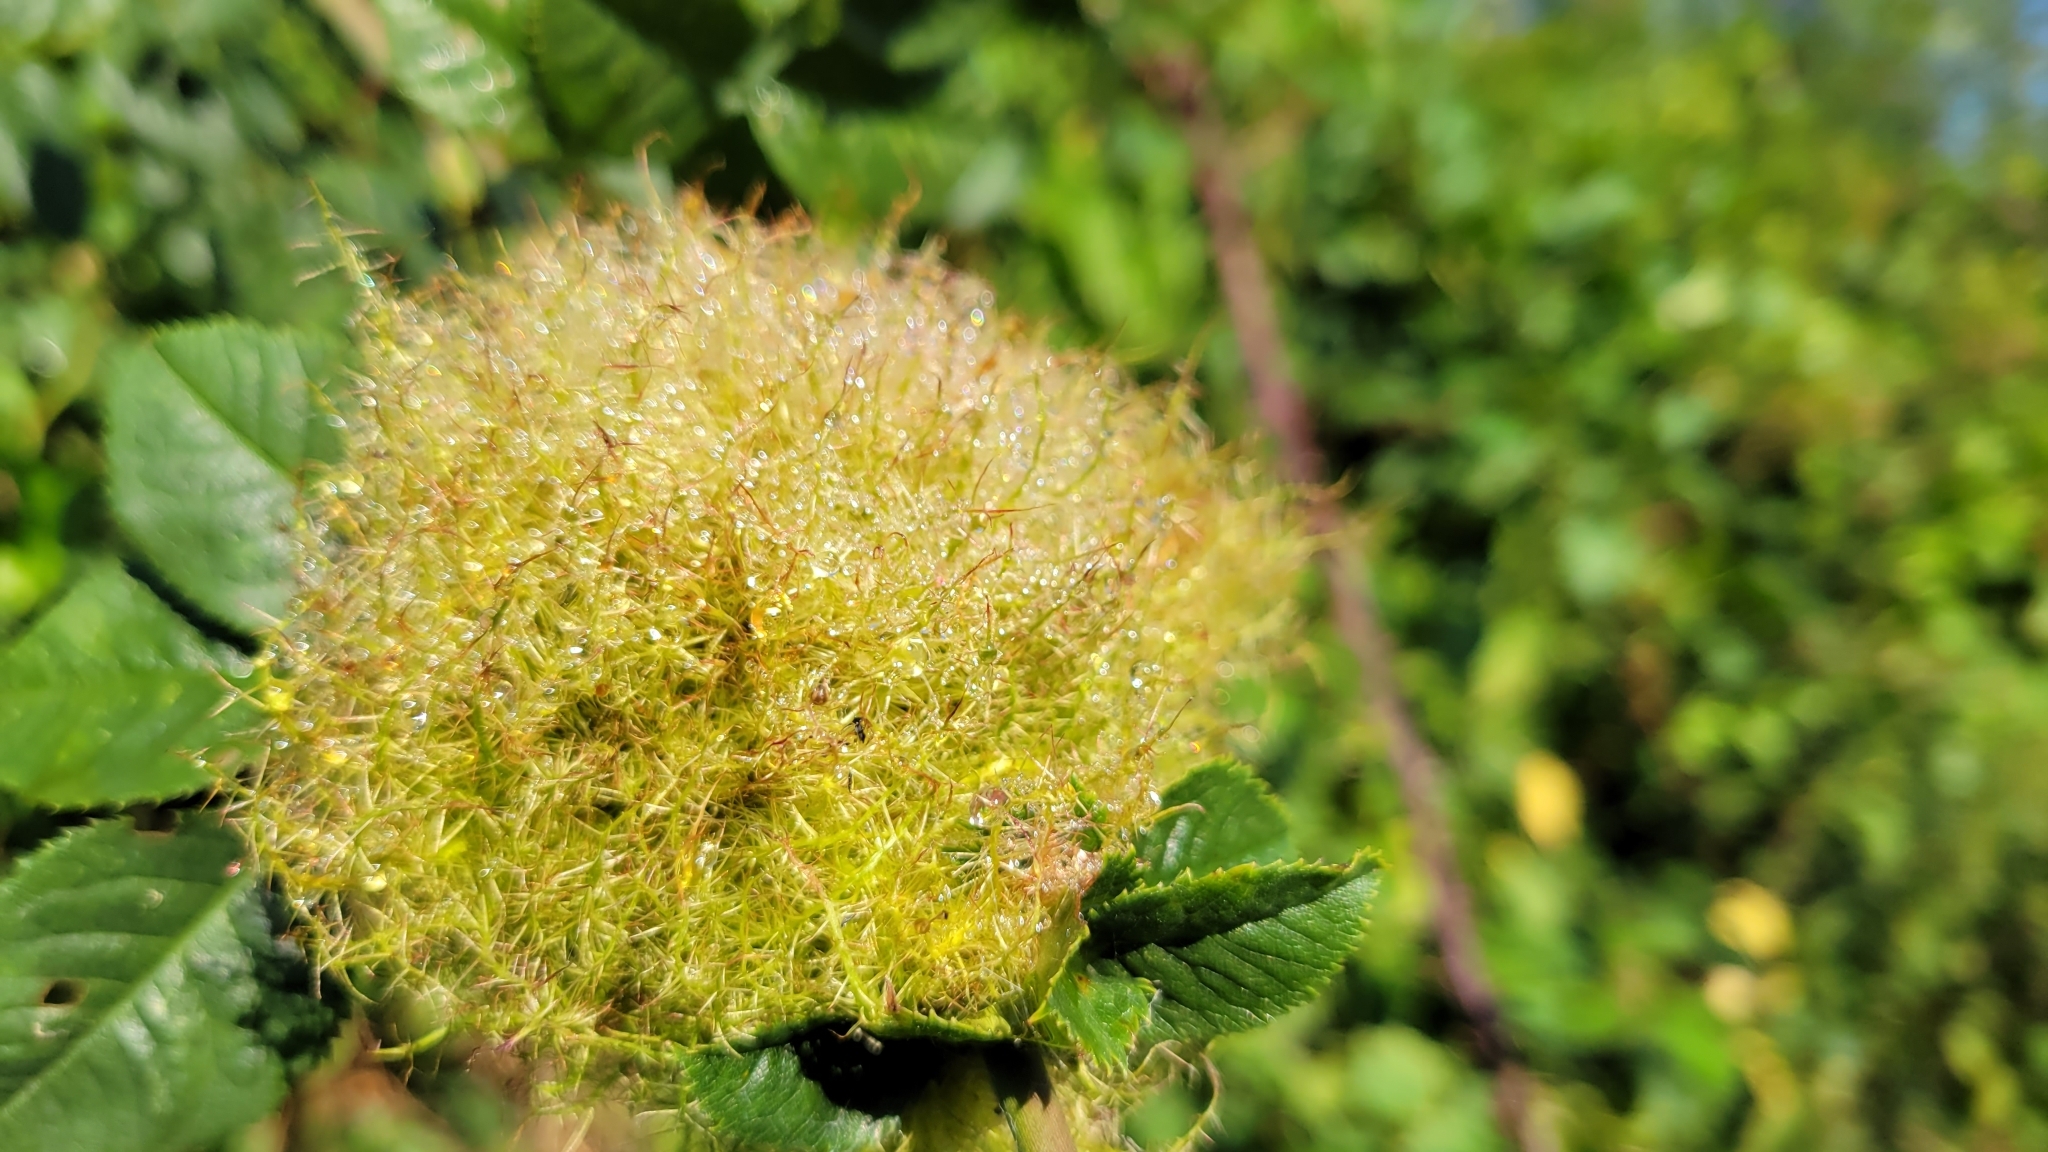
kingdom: Animalia
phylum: Arthropoda
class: Insecta
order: Hymenoptera
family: Cynipidae
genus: Diplolepis
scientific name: Diplolepis rosae
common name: Bedeguar gall
